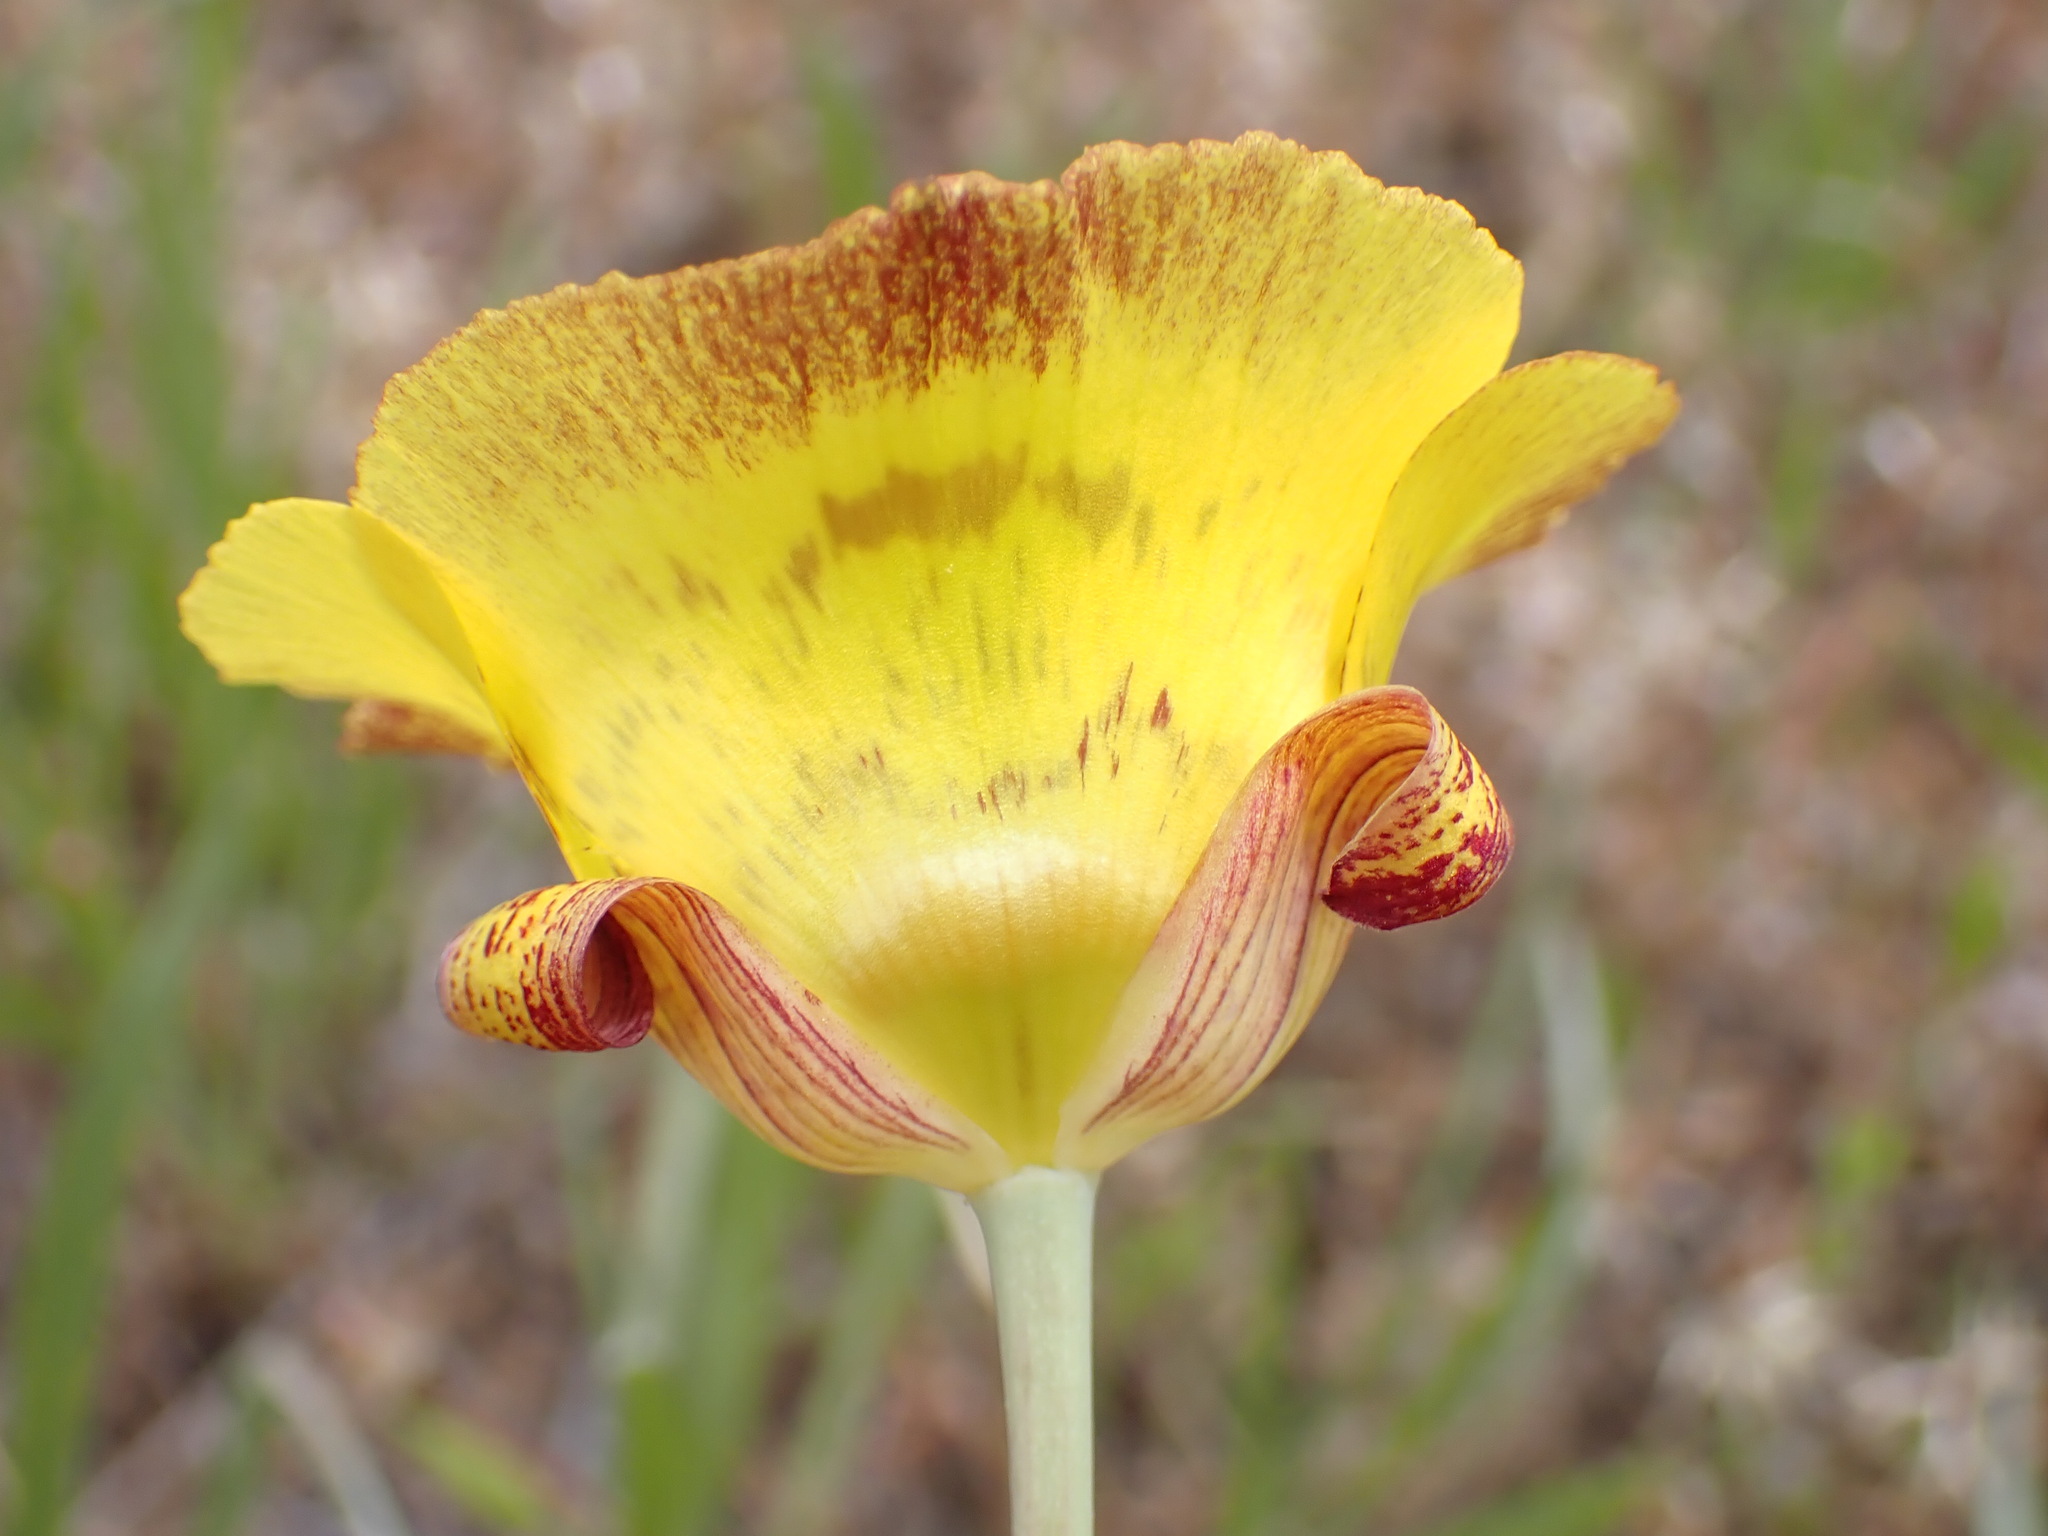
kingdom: Plantae
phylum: Tracheophyta
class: Liliopsida
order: Liliales
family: Liliaceae
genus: Calochortus
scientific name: Calochortus luteus
